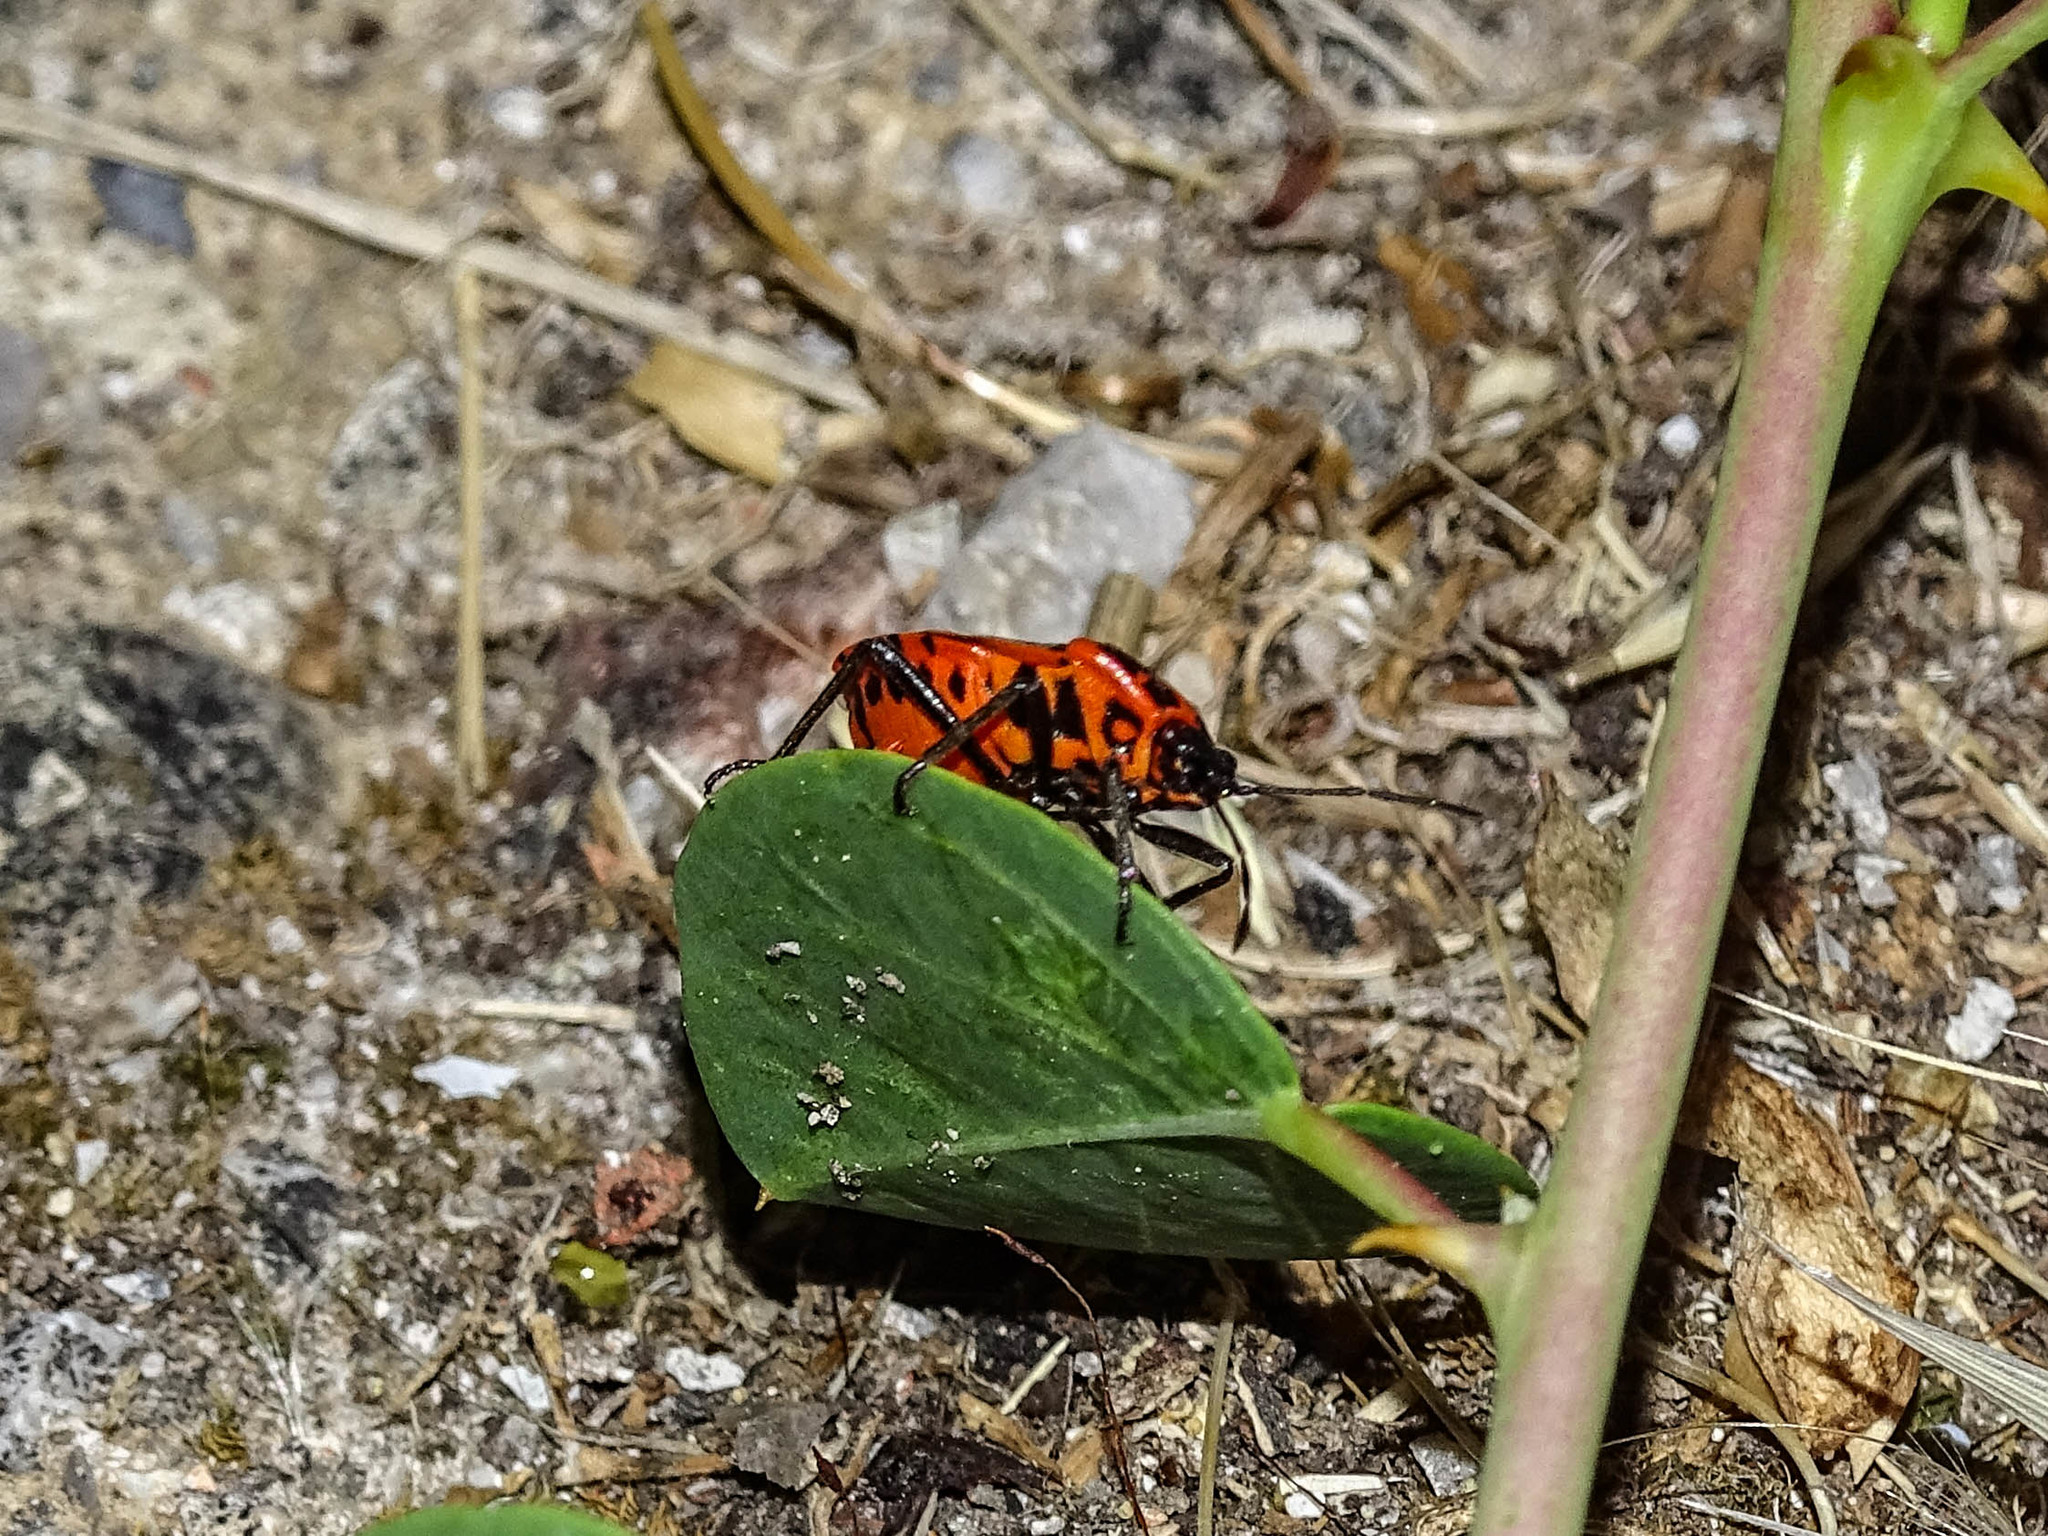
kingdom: Animalia
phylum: Arthropoda
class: Insecta
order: Hemiptera
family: Pentatomidae
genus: Eurydema
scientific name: Eurydema eckerleini
